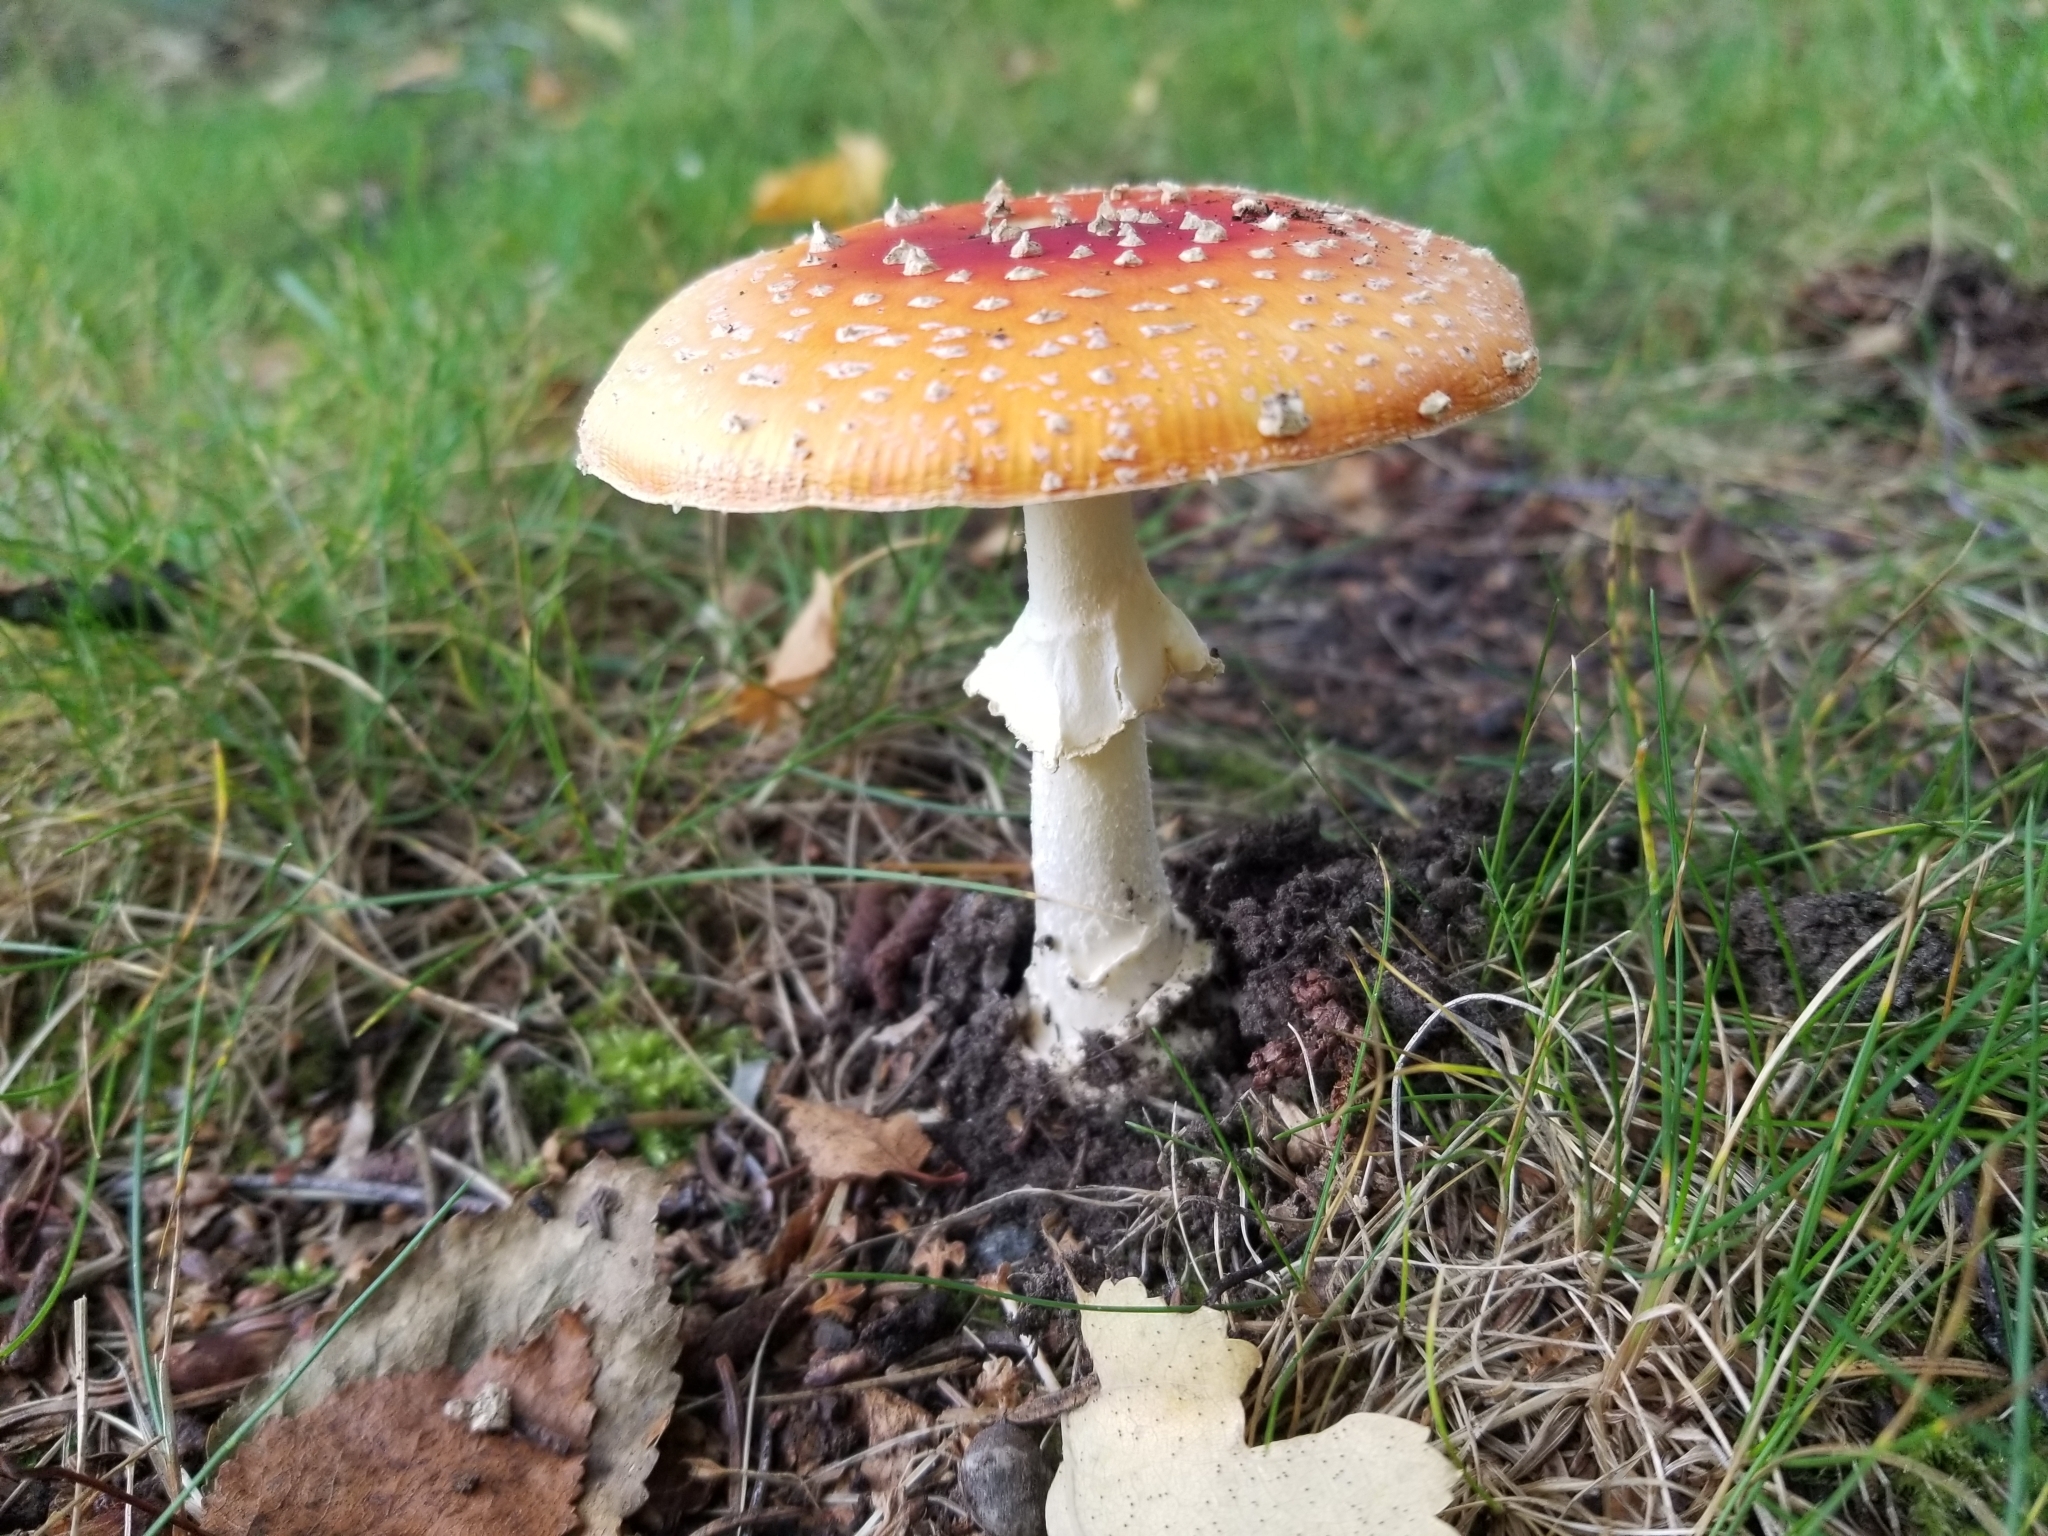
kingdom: Fungi
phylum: Basidiomycota
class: Agaricomycetes
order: Agaricales
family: Amanitaceae
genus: Amanita
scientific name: Amanita muscaria
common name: Fly agaric
